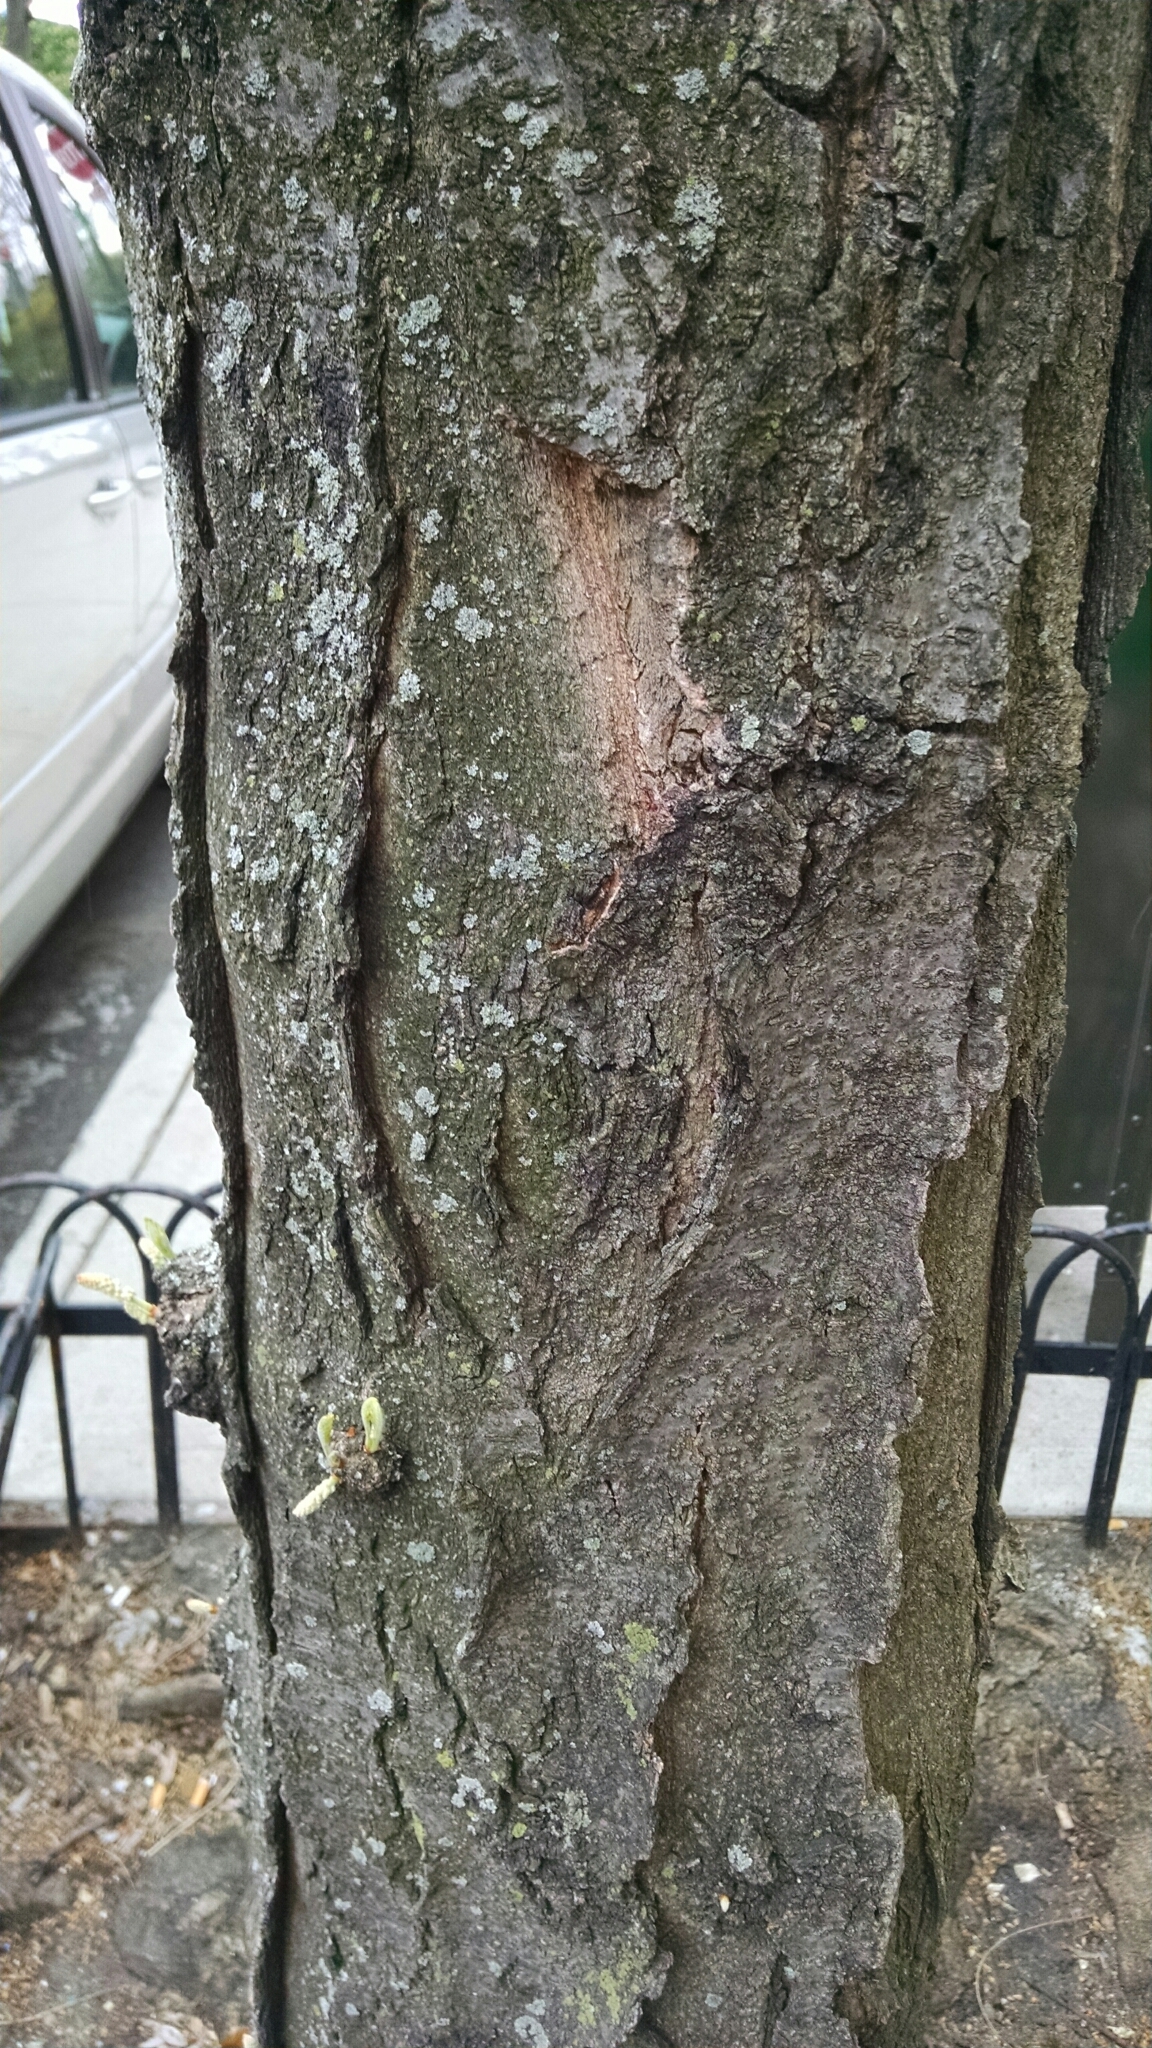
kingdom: Plantae
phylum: Tracheophyta
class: Magnoliopsida
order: Fabales
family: Fabaceae
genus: Gleditsia
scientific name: Gleditsia triacanthos
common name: Common honeylocust
